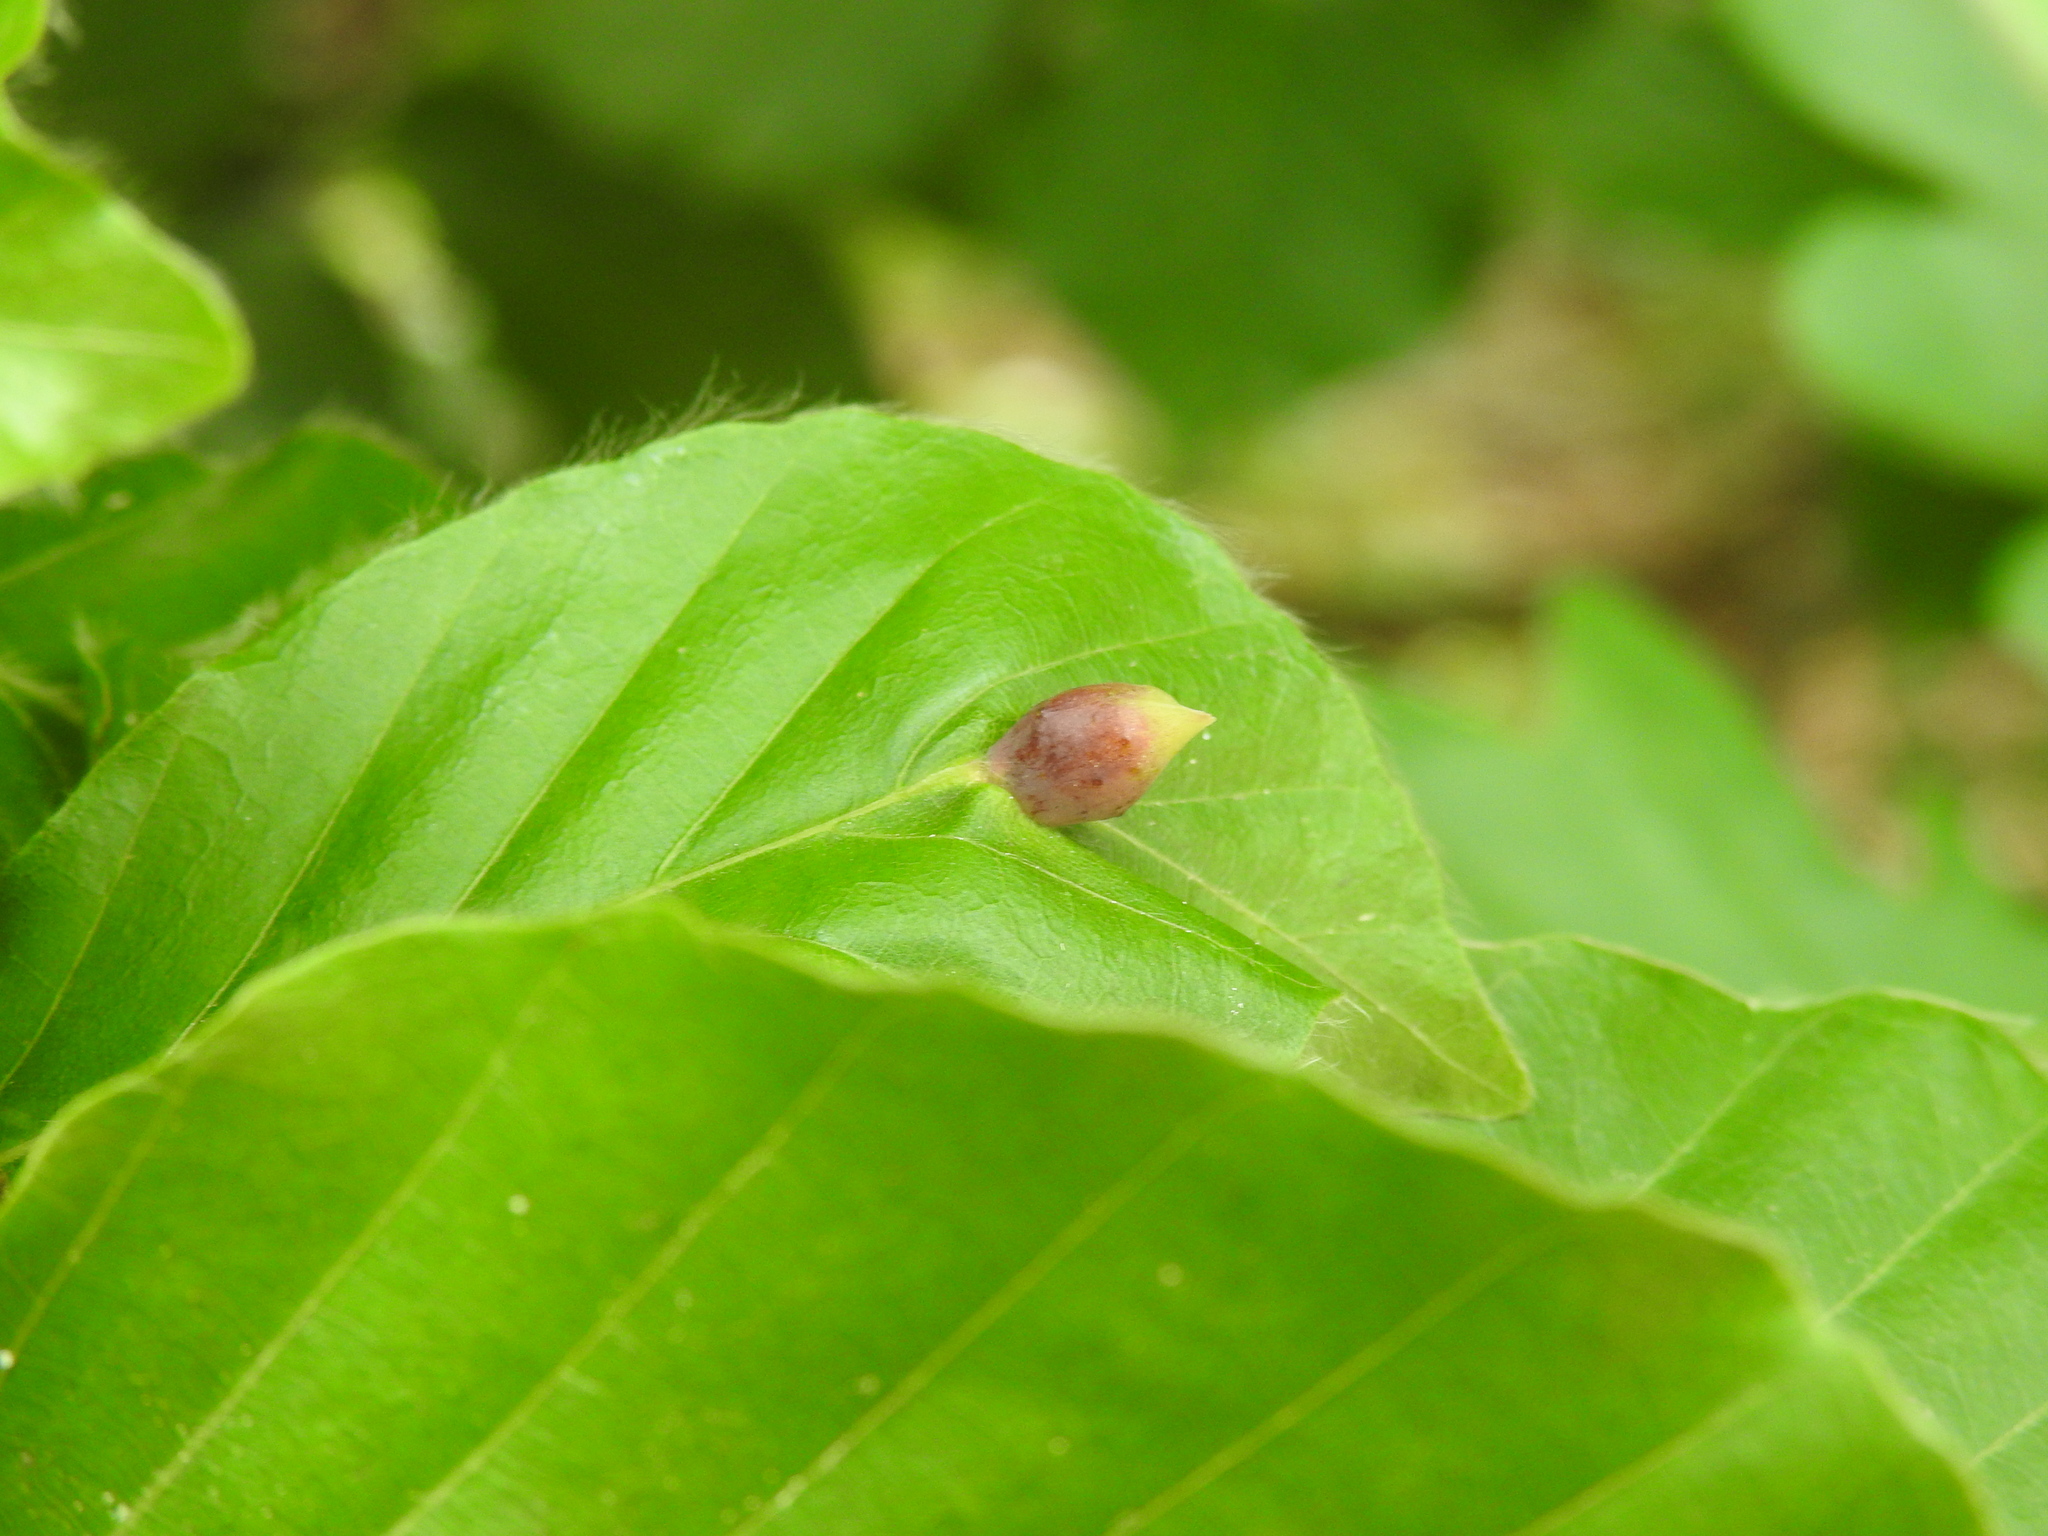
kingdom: Animalia
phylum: Arthropoda
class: Insecta
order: Diptera
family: Cecidomyiidae
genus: Mikiola
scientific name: Mikiola fagi
